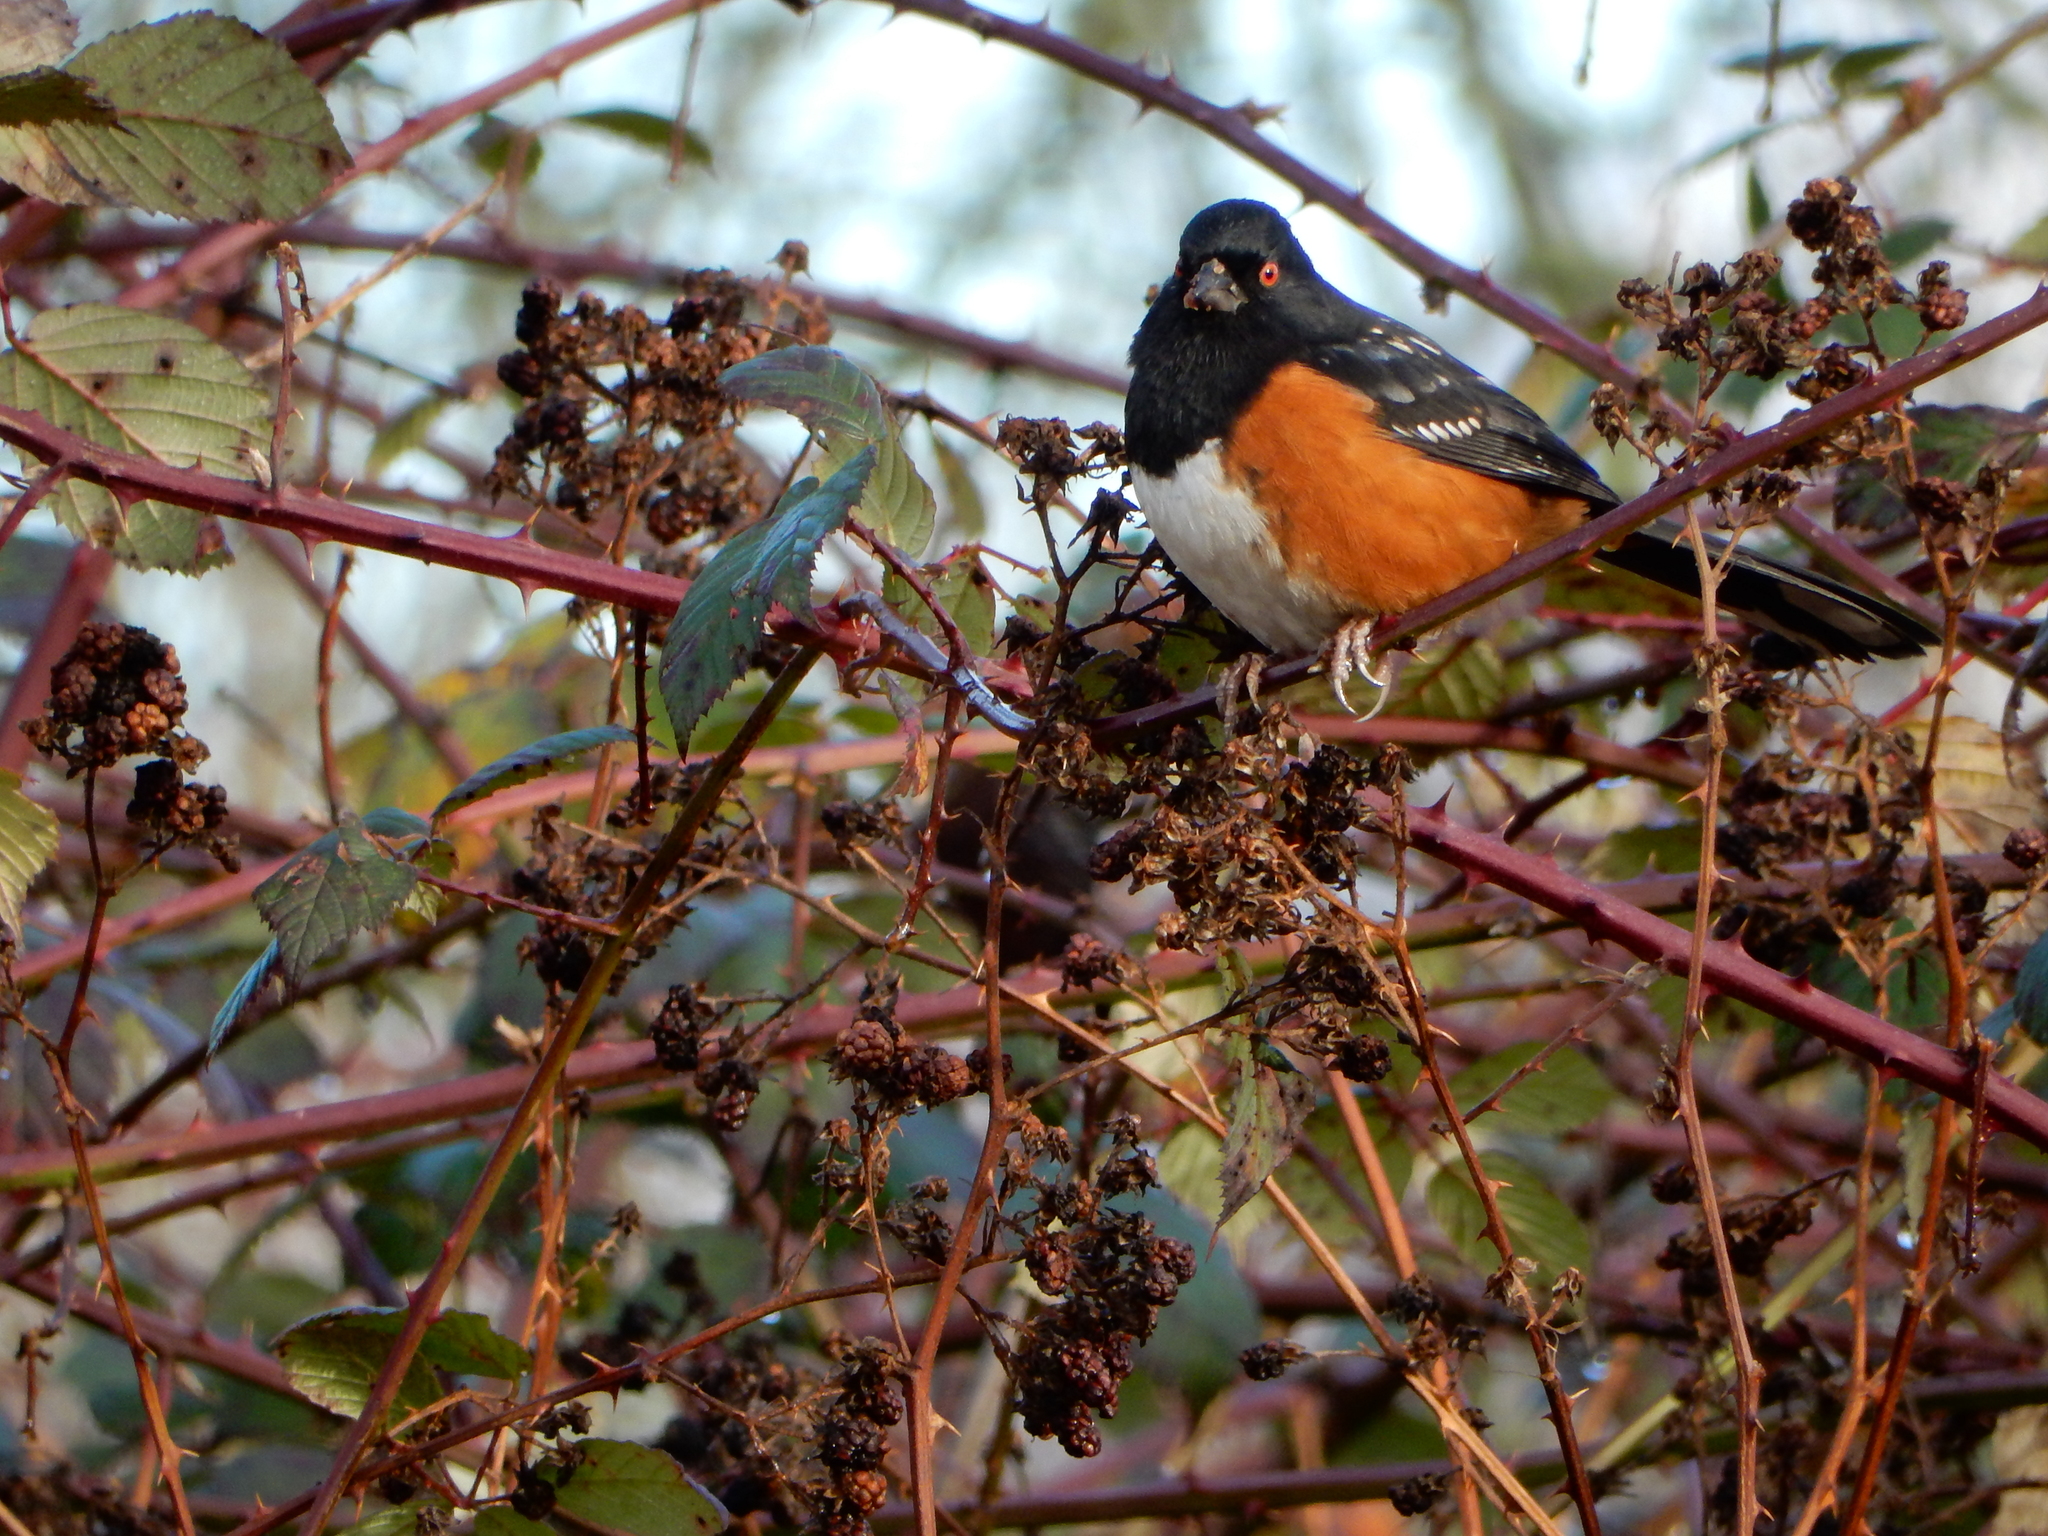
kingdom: Animalia
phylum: Chordata
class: Aves
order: Passeriformes
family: Passerellidae
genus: Pipilo
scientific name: Pipilo maculatus
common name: Spotted towhee
